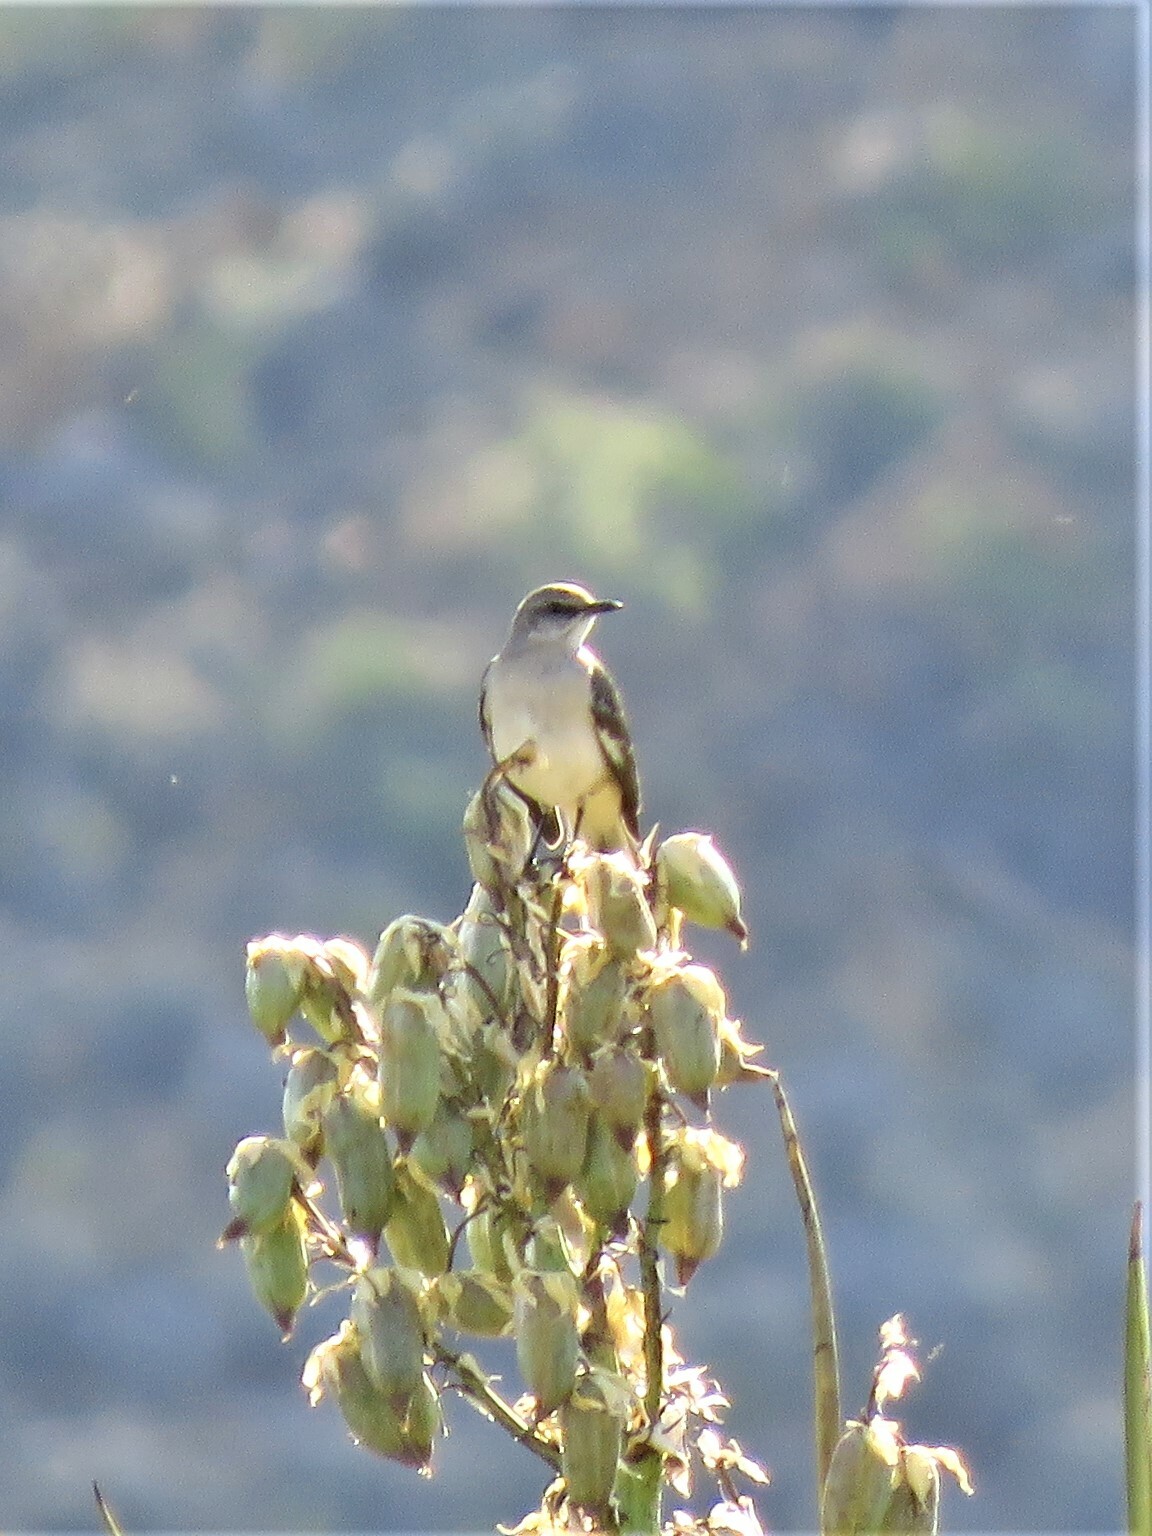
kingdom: Animalia
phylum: Chordata
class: Aves
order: Passeriformes
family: Mimidae
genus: Mimus
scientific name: Mimus polyglottos
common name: Northern mockingbird
